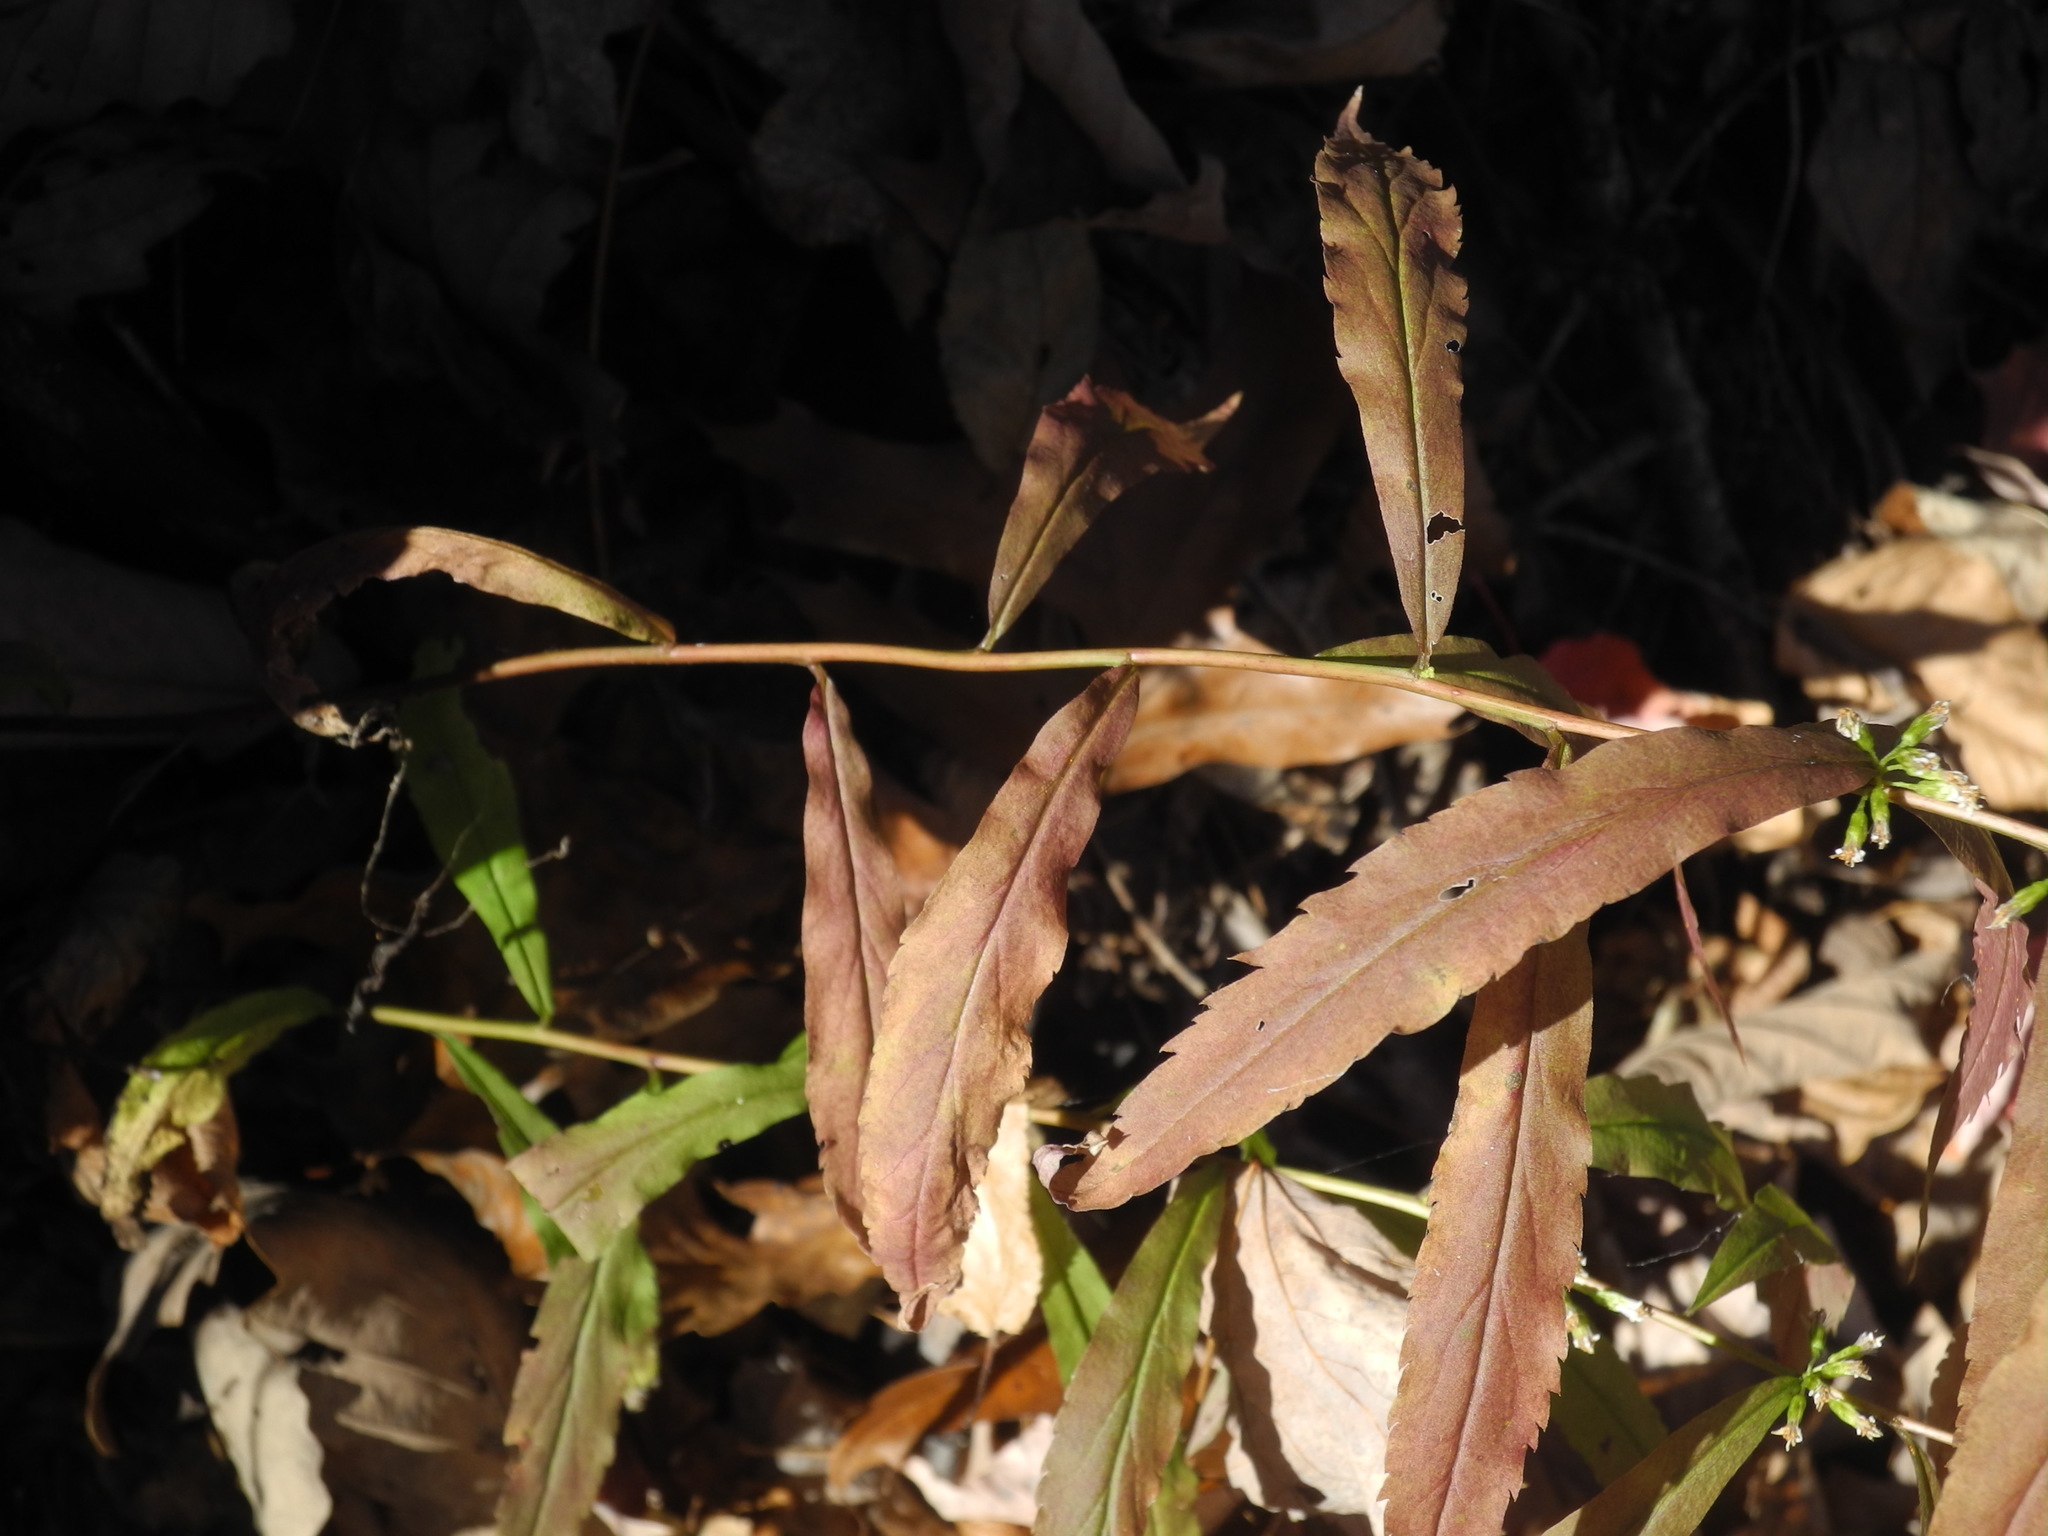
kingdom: Plantae
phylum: Tracheophyta
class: Magnoliopsida
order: Asterales
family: Asteraceae
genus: Solidago
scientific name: Solidago caesia
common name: Woodland goldenrod
